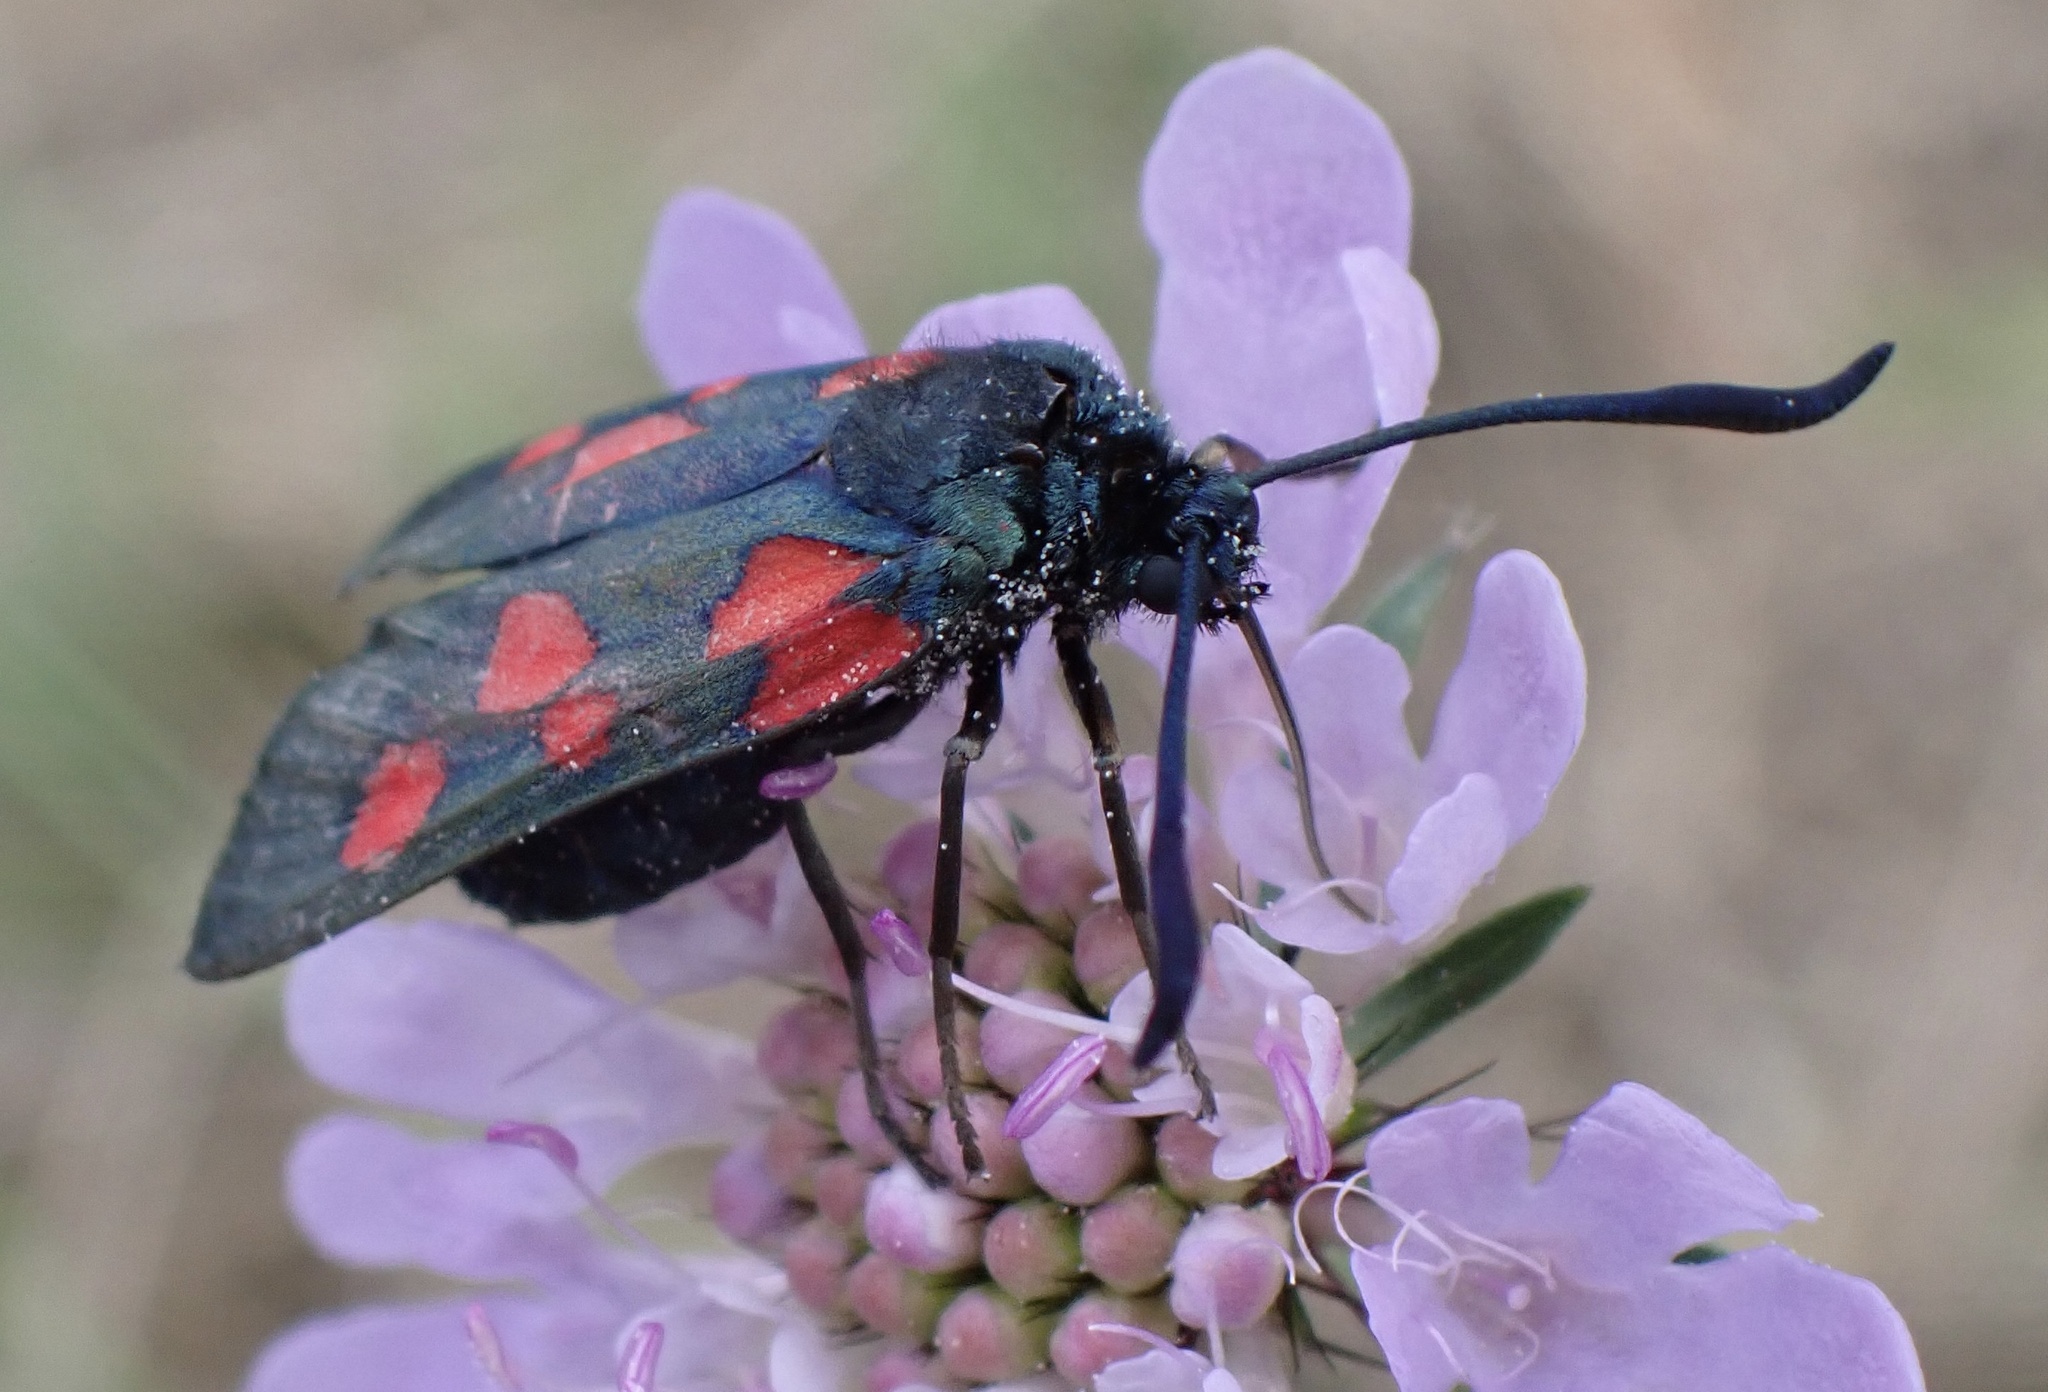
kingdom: Animalia
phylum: Arthropoda
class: Insecta
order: Lepidoptera
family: Zygaenidae
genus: Zygaena
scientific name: Zygaena trifolii
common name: Five-spot burnet
